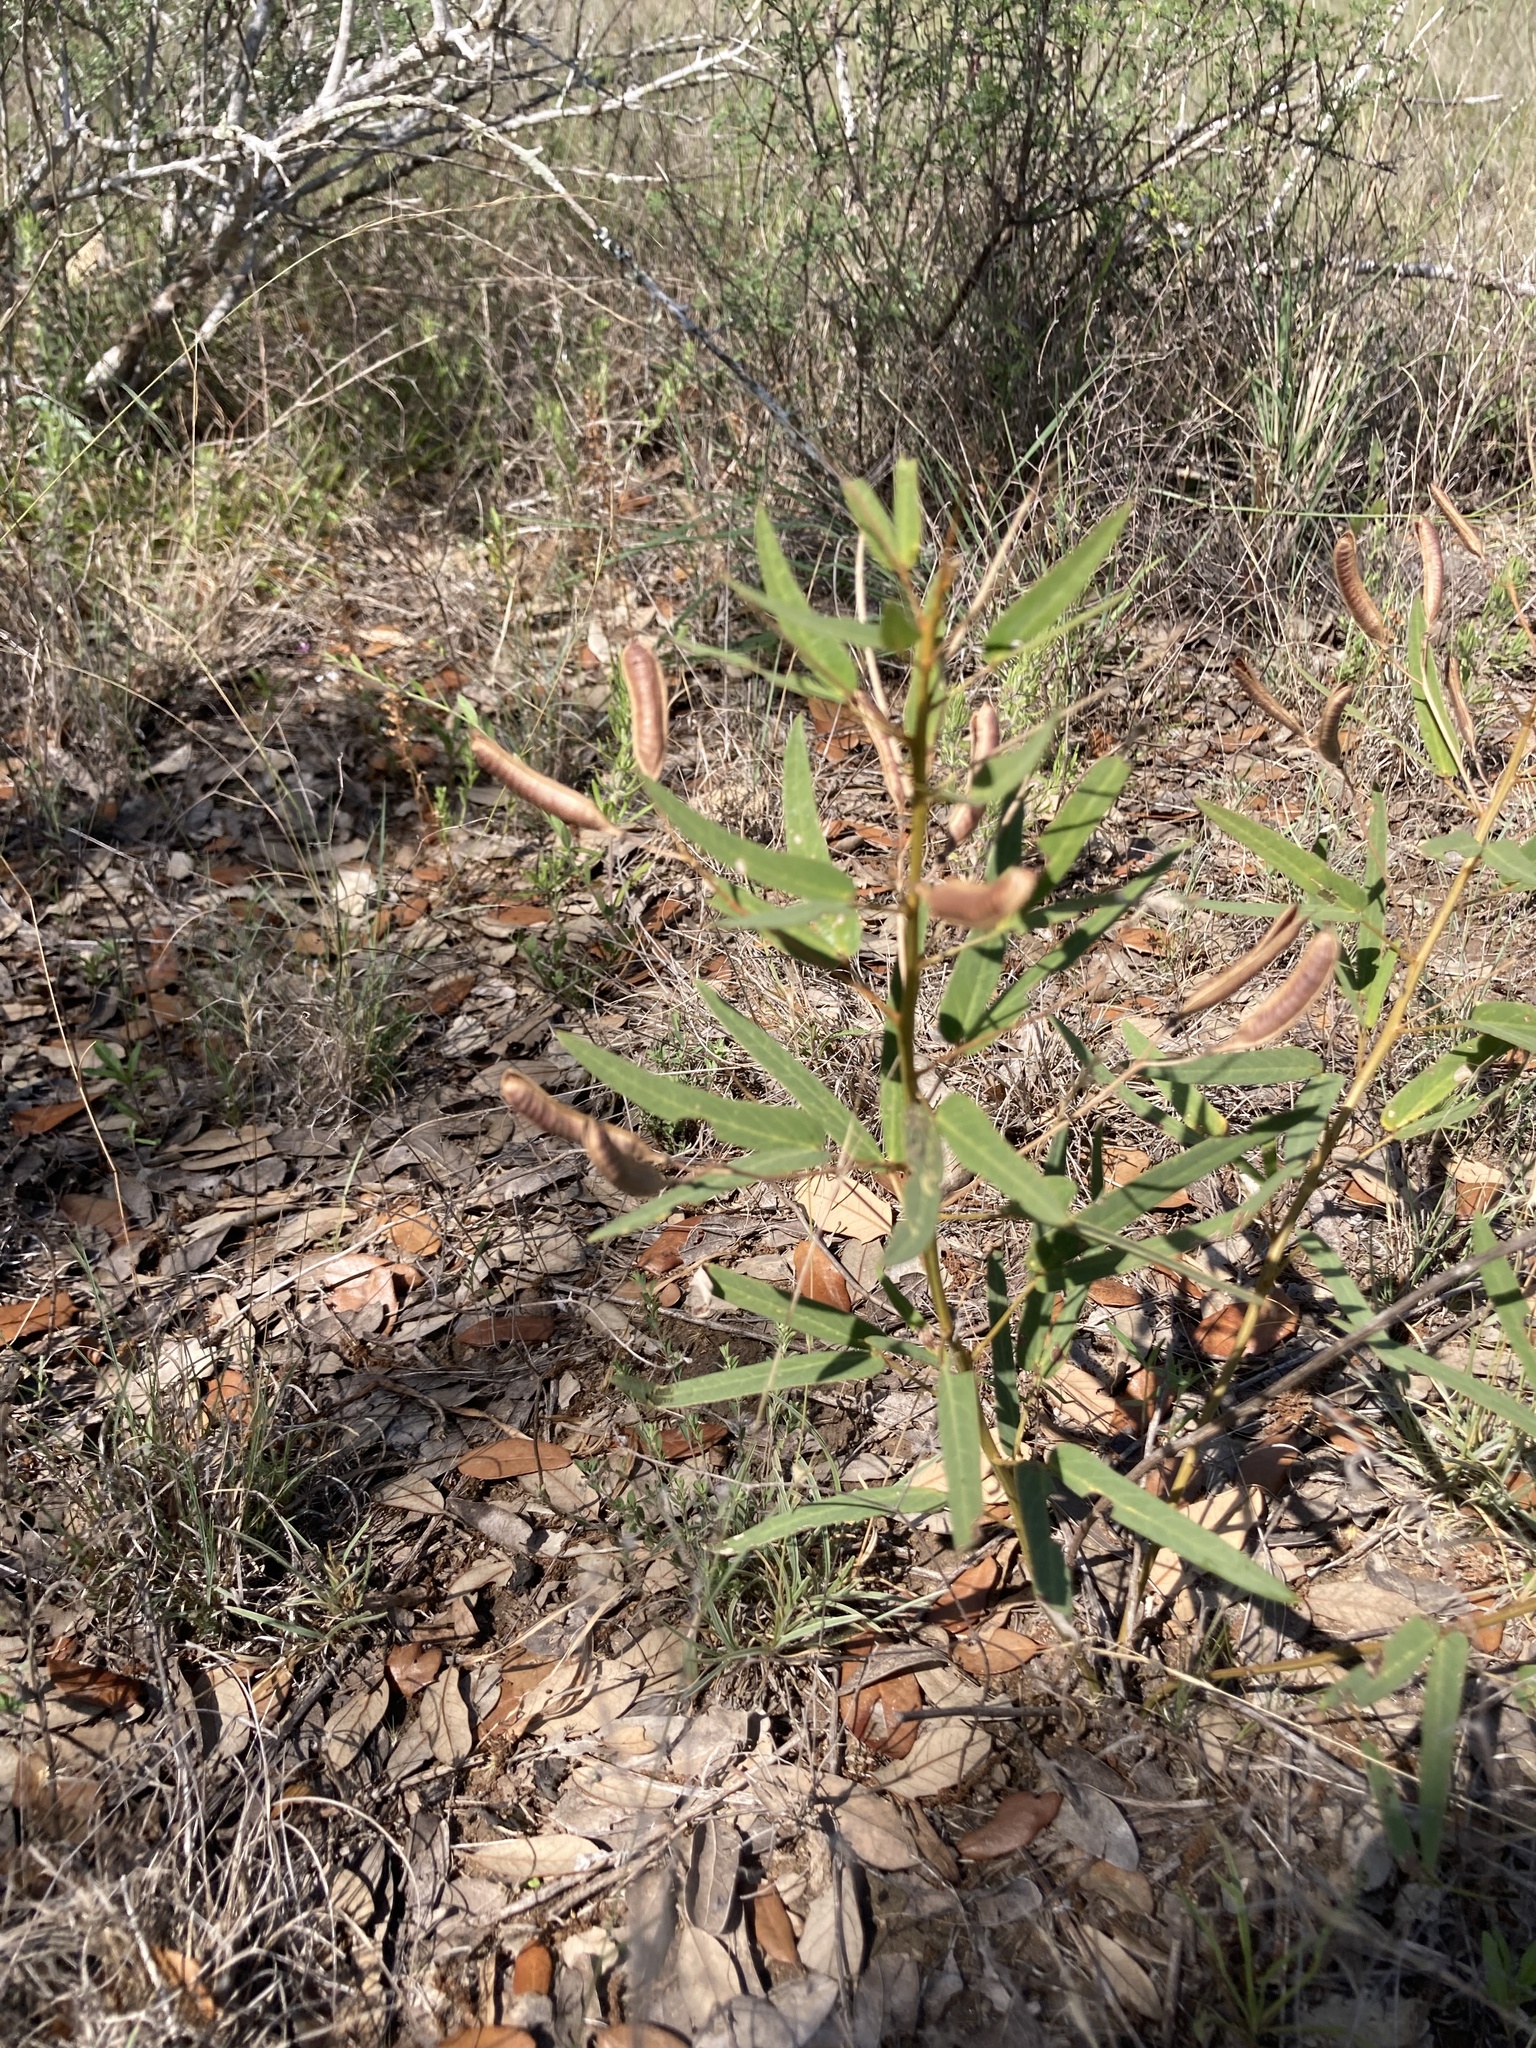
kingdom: Plantae
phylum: Tracheophyta
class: Magnoliopsida
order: Fabales
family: Fabaceae
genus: Senna
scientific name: Senna roemeriana
